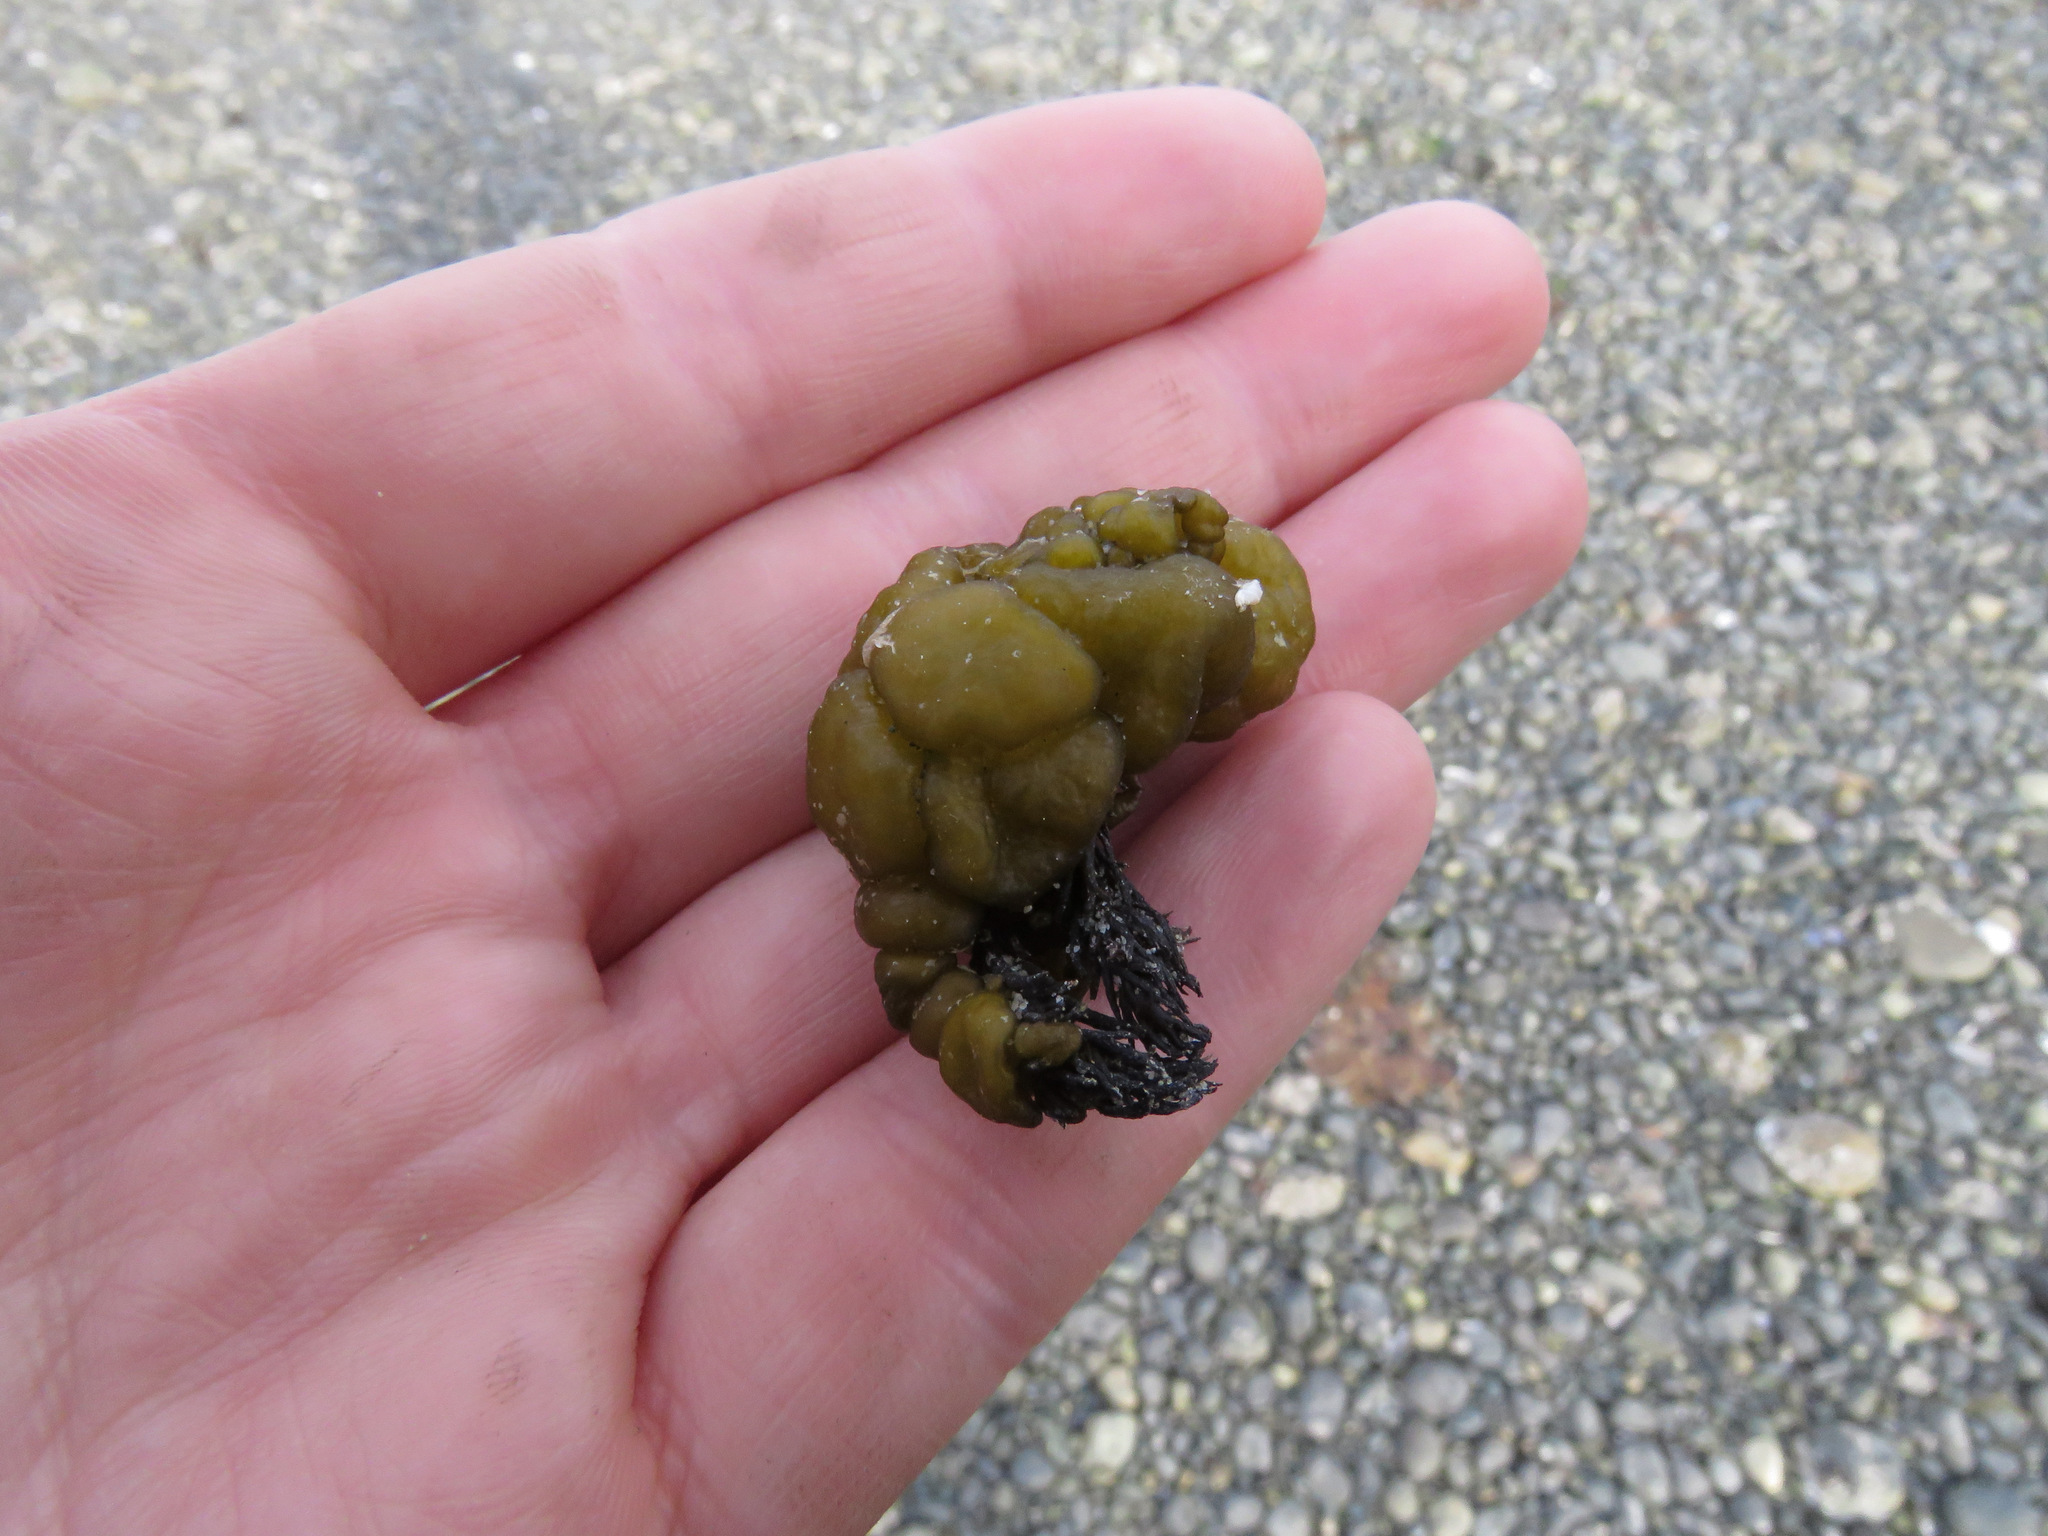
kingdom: Chromista
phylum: Ochrophyta
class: Phaeophyceae
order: Ectocarpales
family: Chordariaceae
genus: Leathesia
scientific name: Leathesia marina
